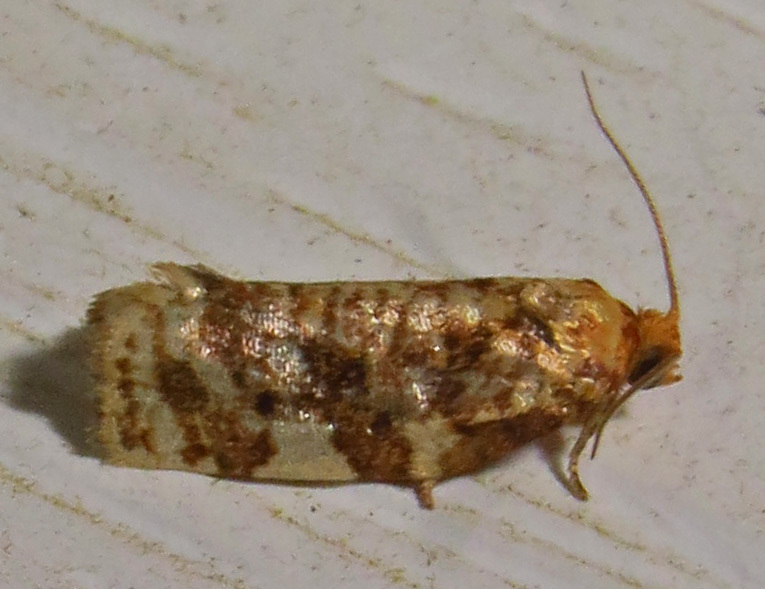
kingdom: Animalia
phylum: Arthropoda
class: Insecta
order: Lepidoptera
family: Tortricidae
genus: Archips
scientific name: Archips argyrospila
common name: Fruit-tree leafroller moth
